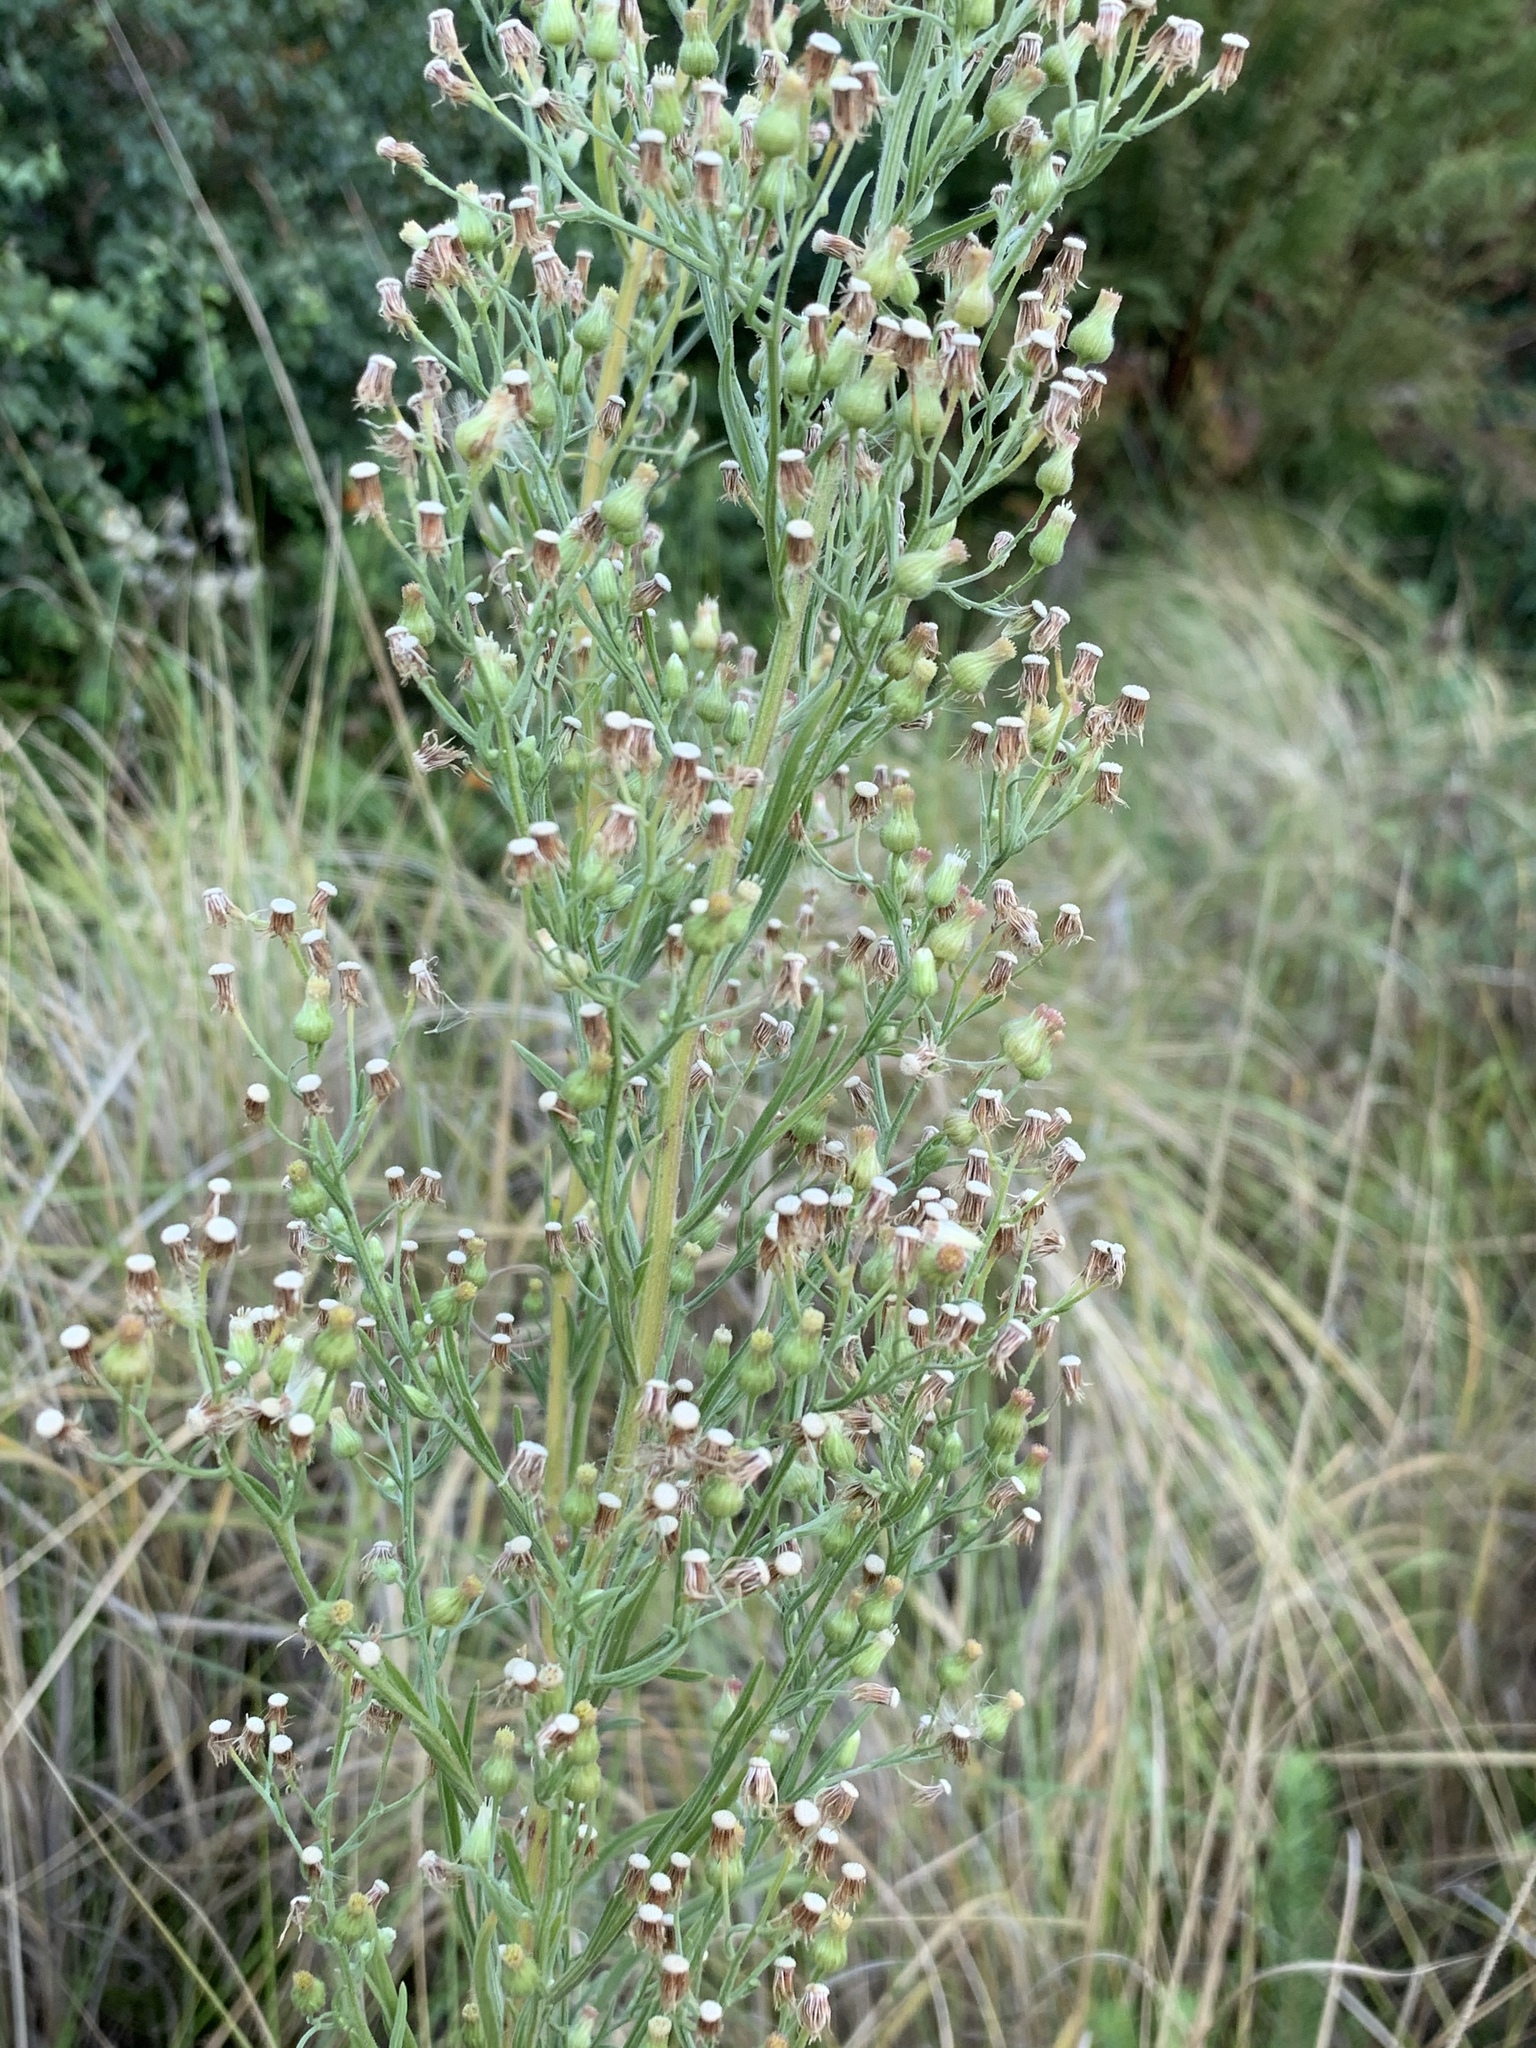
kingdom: Plantae
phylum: Tracheophyta
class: Magnoliopsida
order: Asterales
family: Asteraceae
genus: Erigeron
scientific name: Erigeron sumatrensis
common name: Daisy
